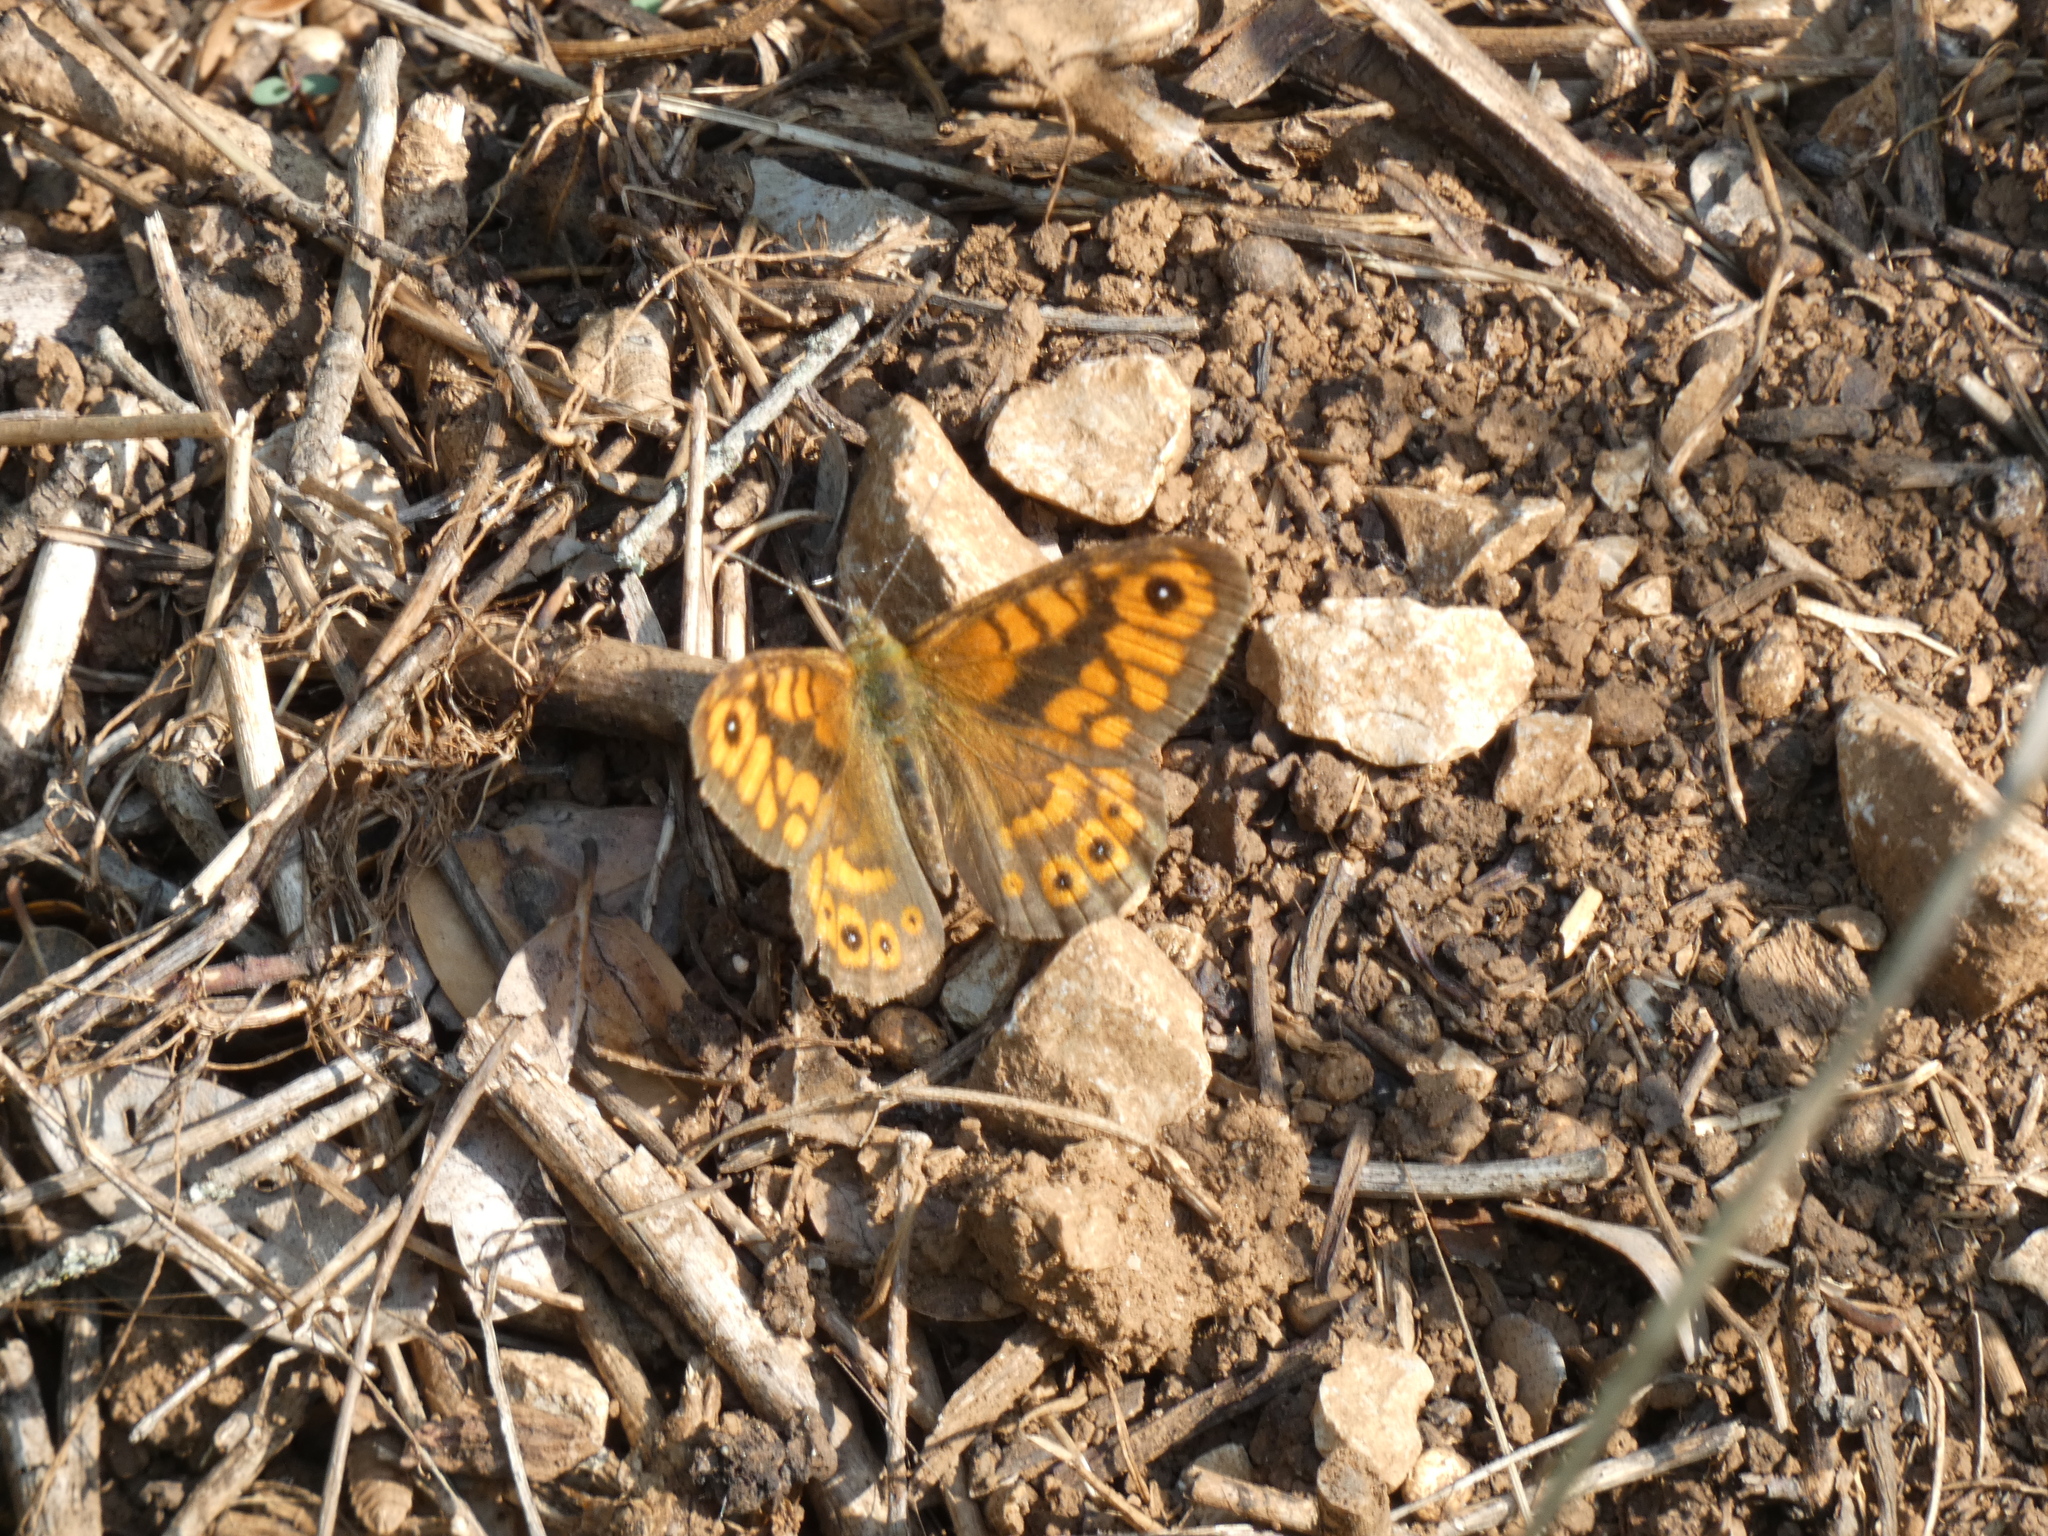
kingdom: Animalia
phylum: Arthropoda
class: Insecta
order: Lepidoptera
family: Nymphalidae
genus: Pararge
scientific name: Pararge Lasiommata megera
